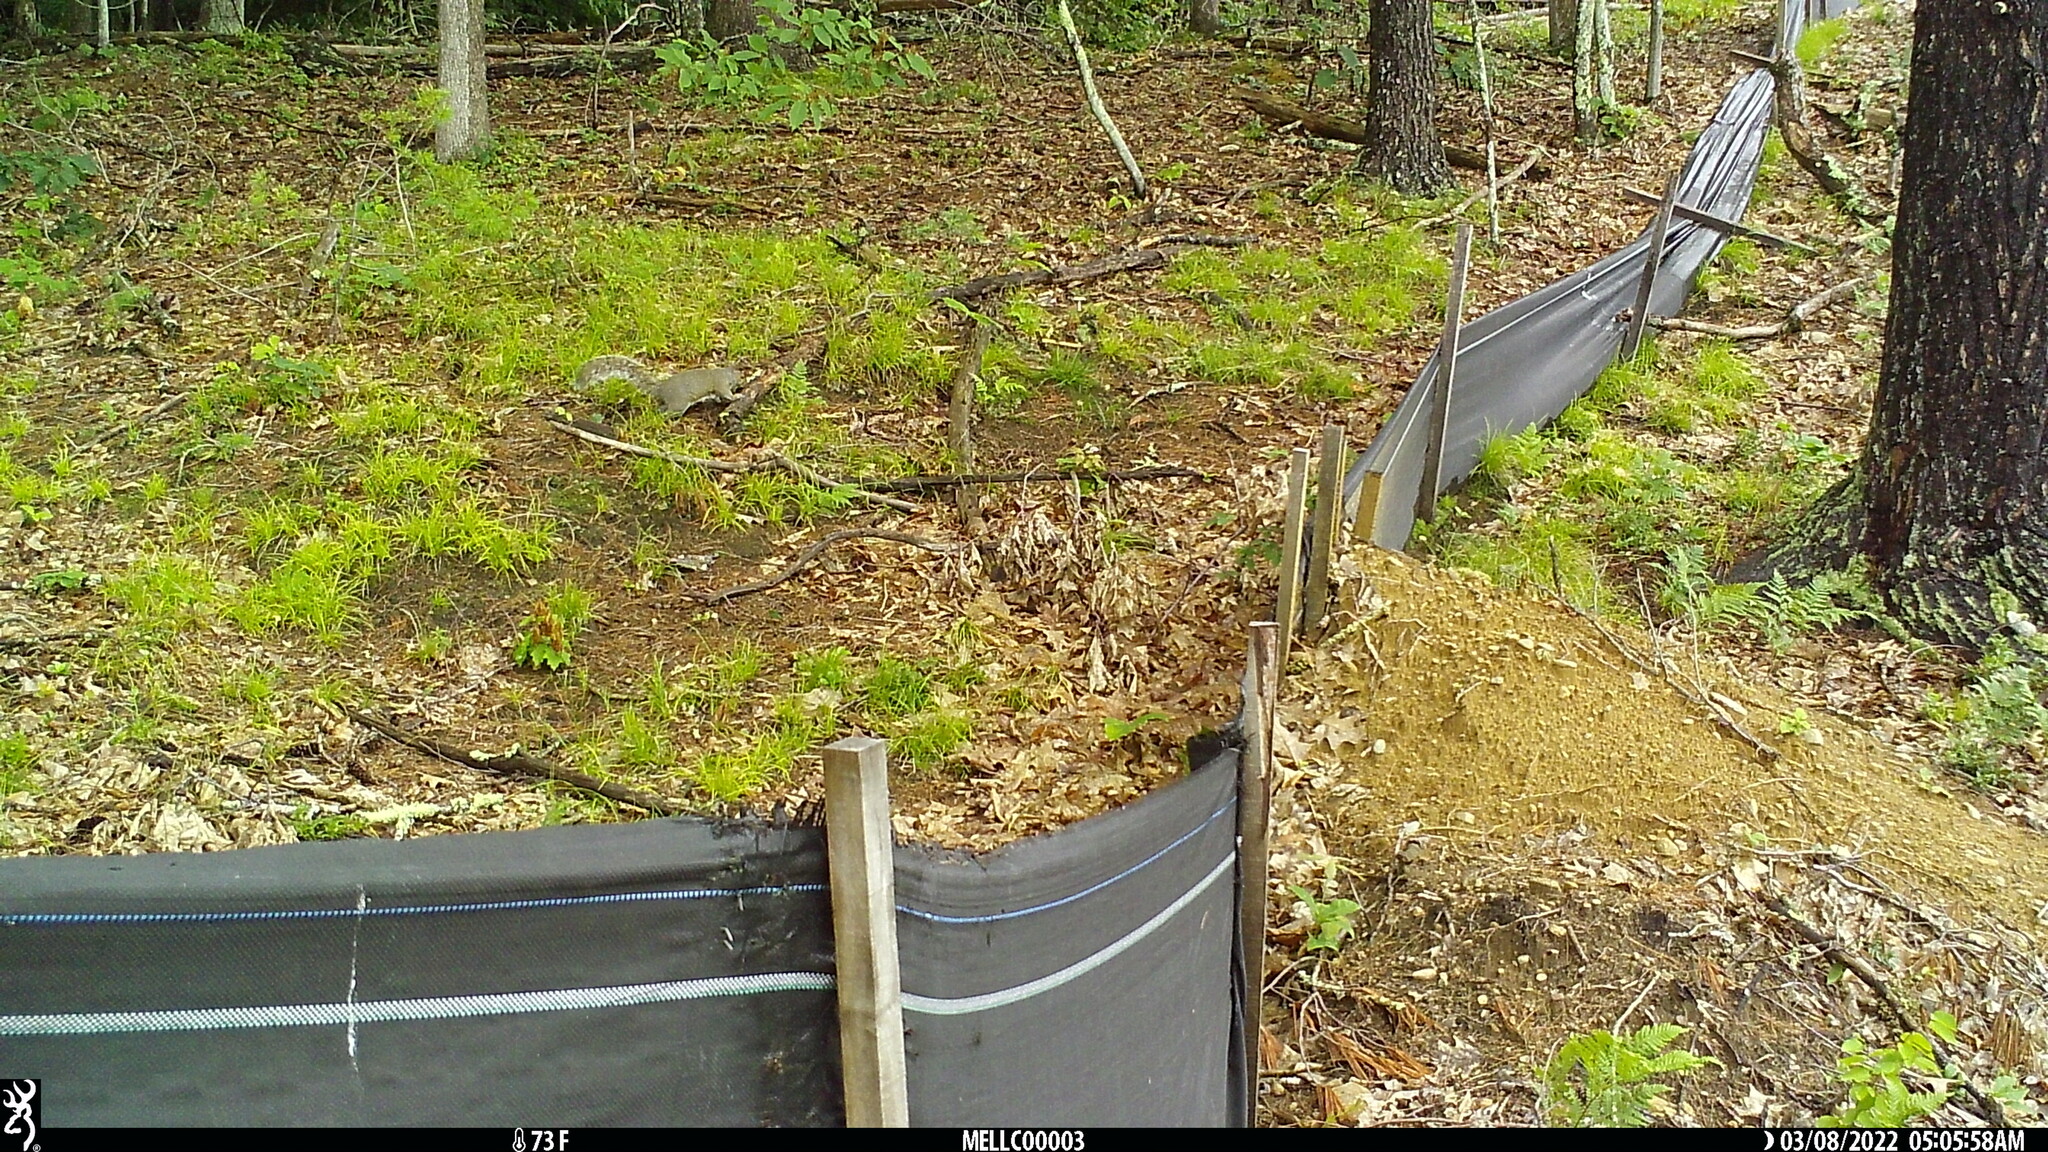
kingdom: Animalia
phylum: Chordata
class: Mammalia
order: Rodentia
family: Sciuridae
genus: Sciurus
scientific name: Sciurus carolinensis
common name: Eastern gray squirrel
